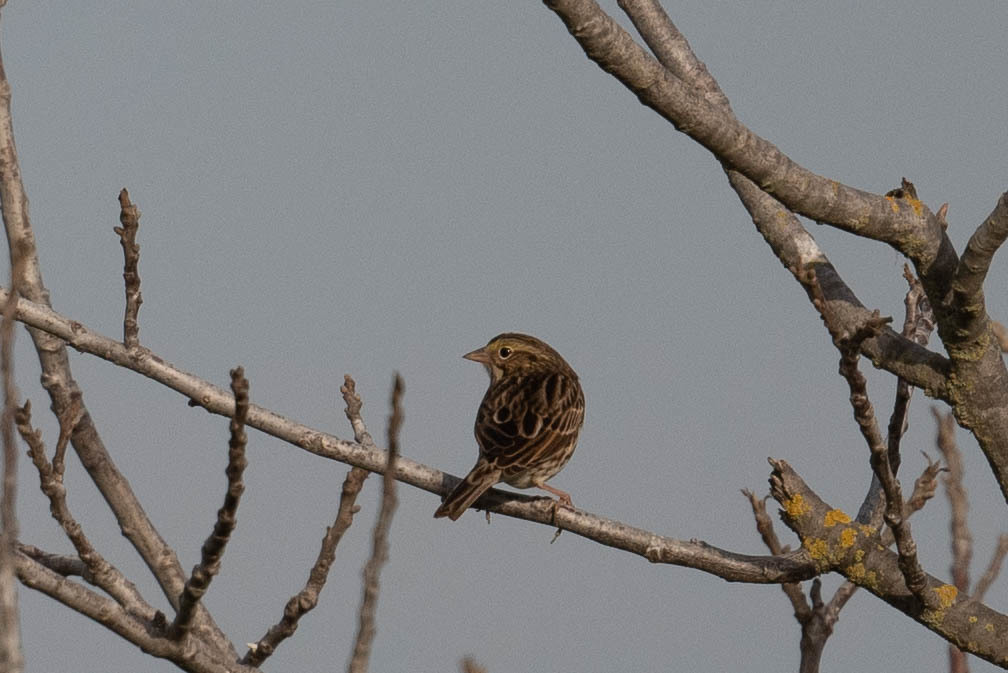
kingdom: Animalia
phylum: Chordata
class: Aves
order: Passeriformes
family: Passerellidae
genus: Passerculus
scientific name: Passerculus sandwichensis
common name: Savannah sparrow
